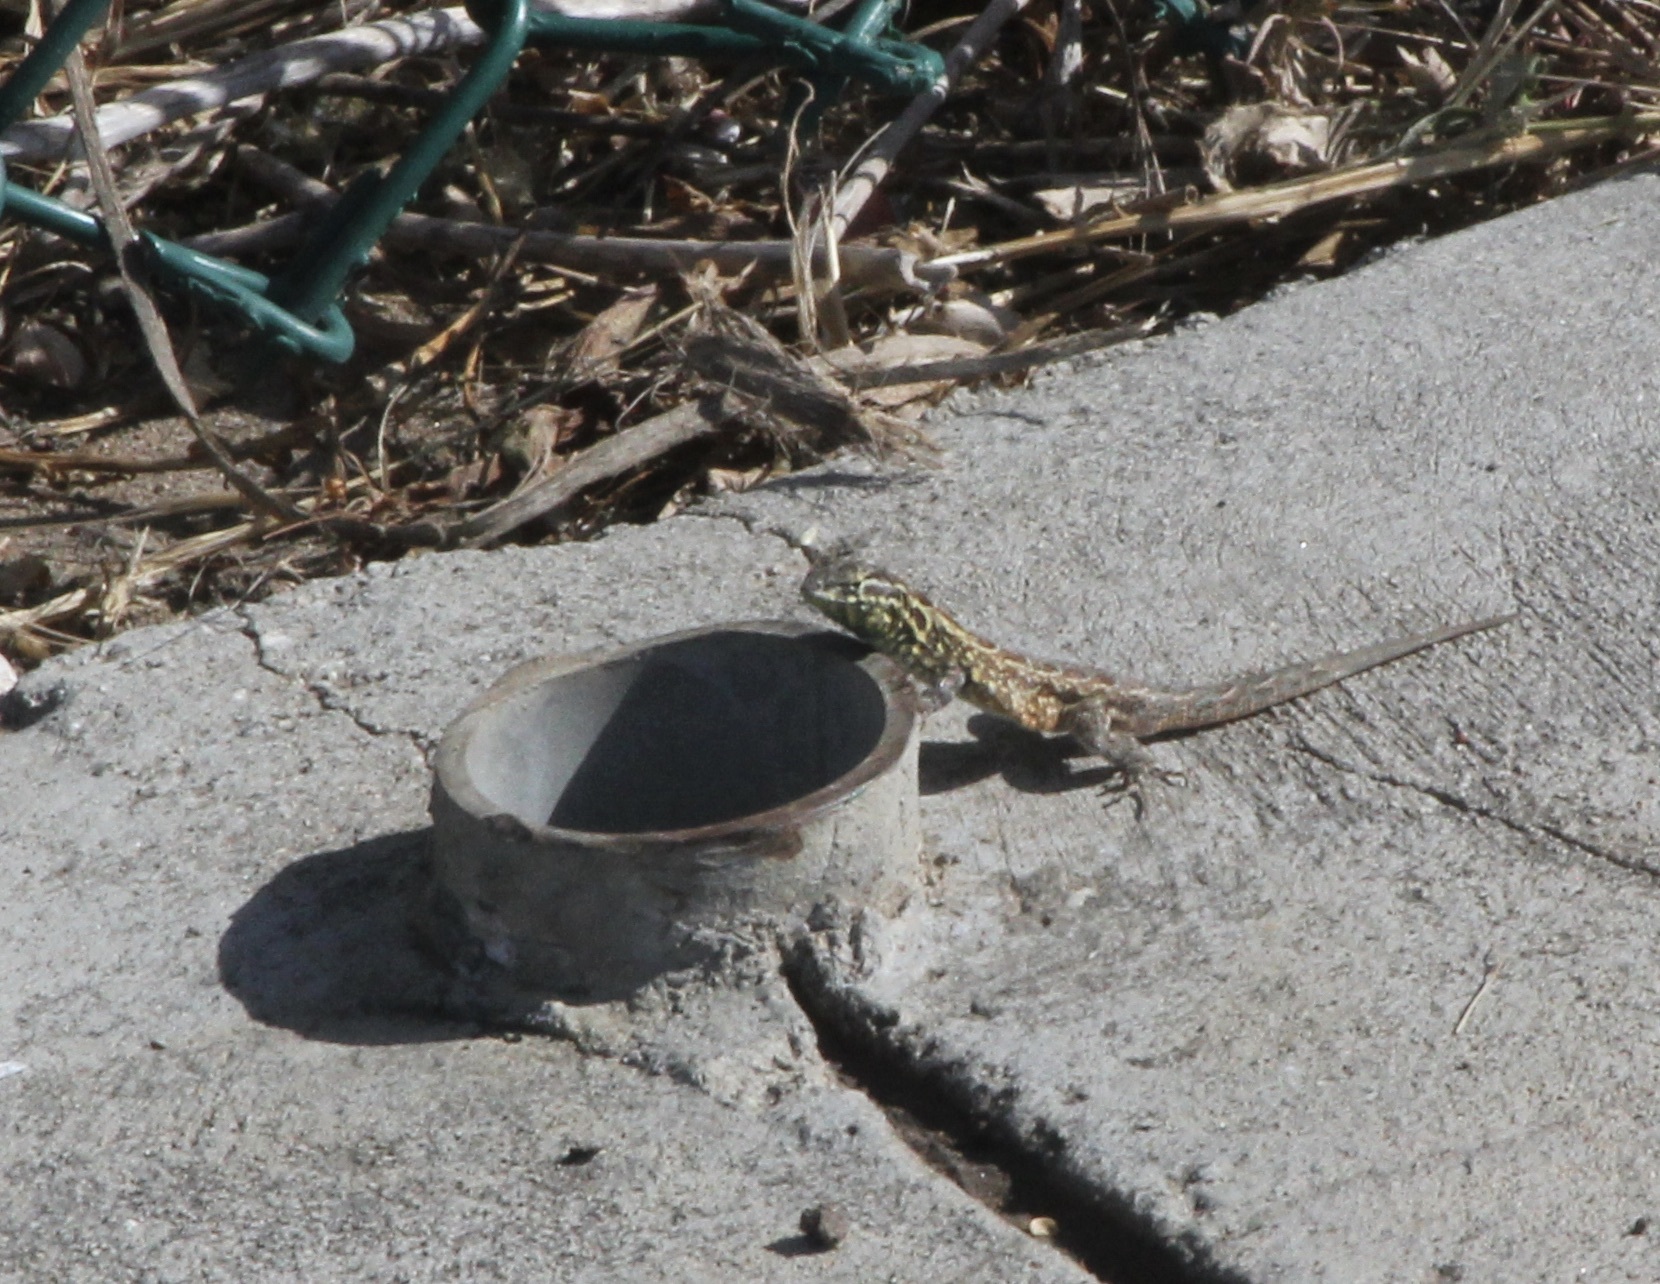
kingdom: Animalia
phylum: Chordata
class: Squamata
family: Phrynosomatidae
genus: Uta
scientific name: Uta stansburiana
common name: Side-blotched lizard
